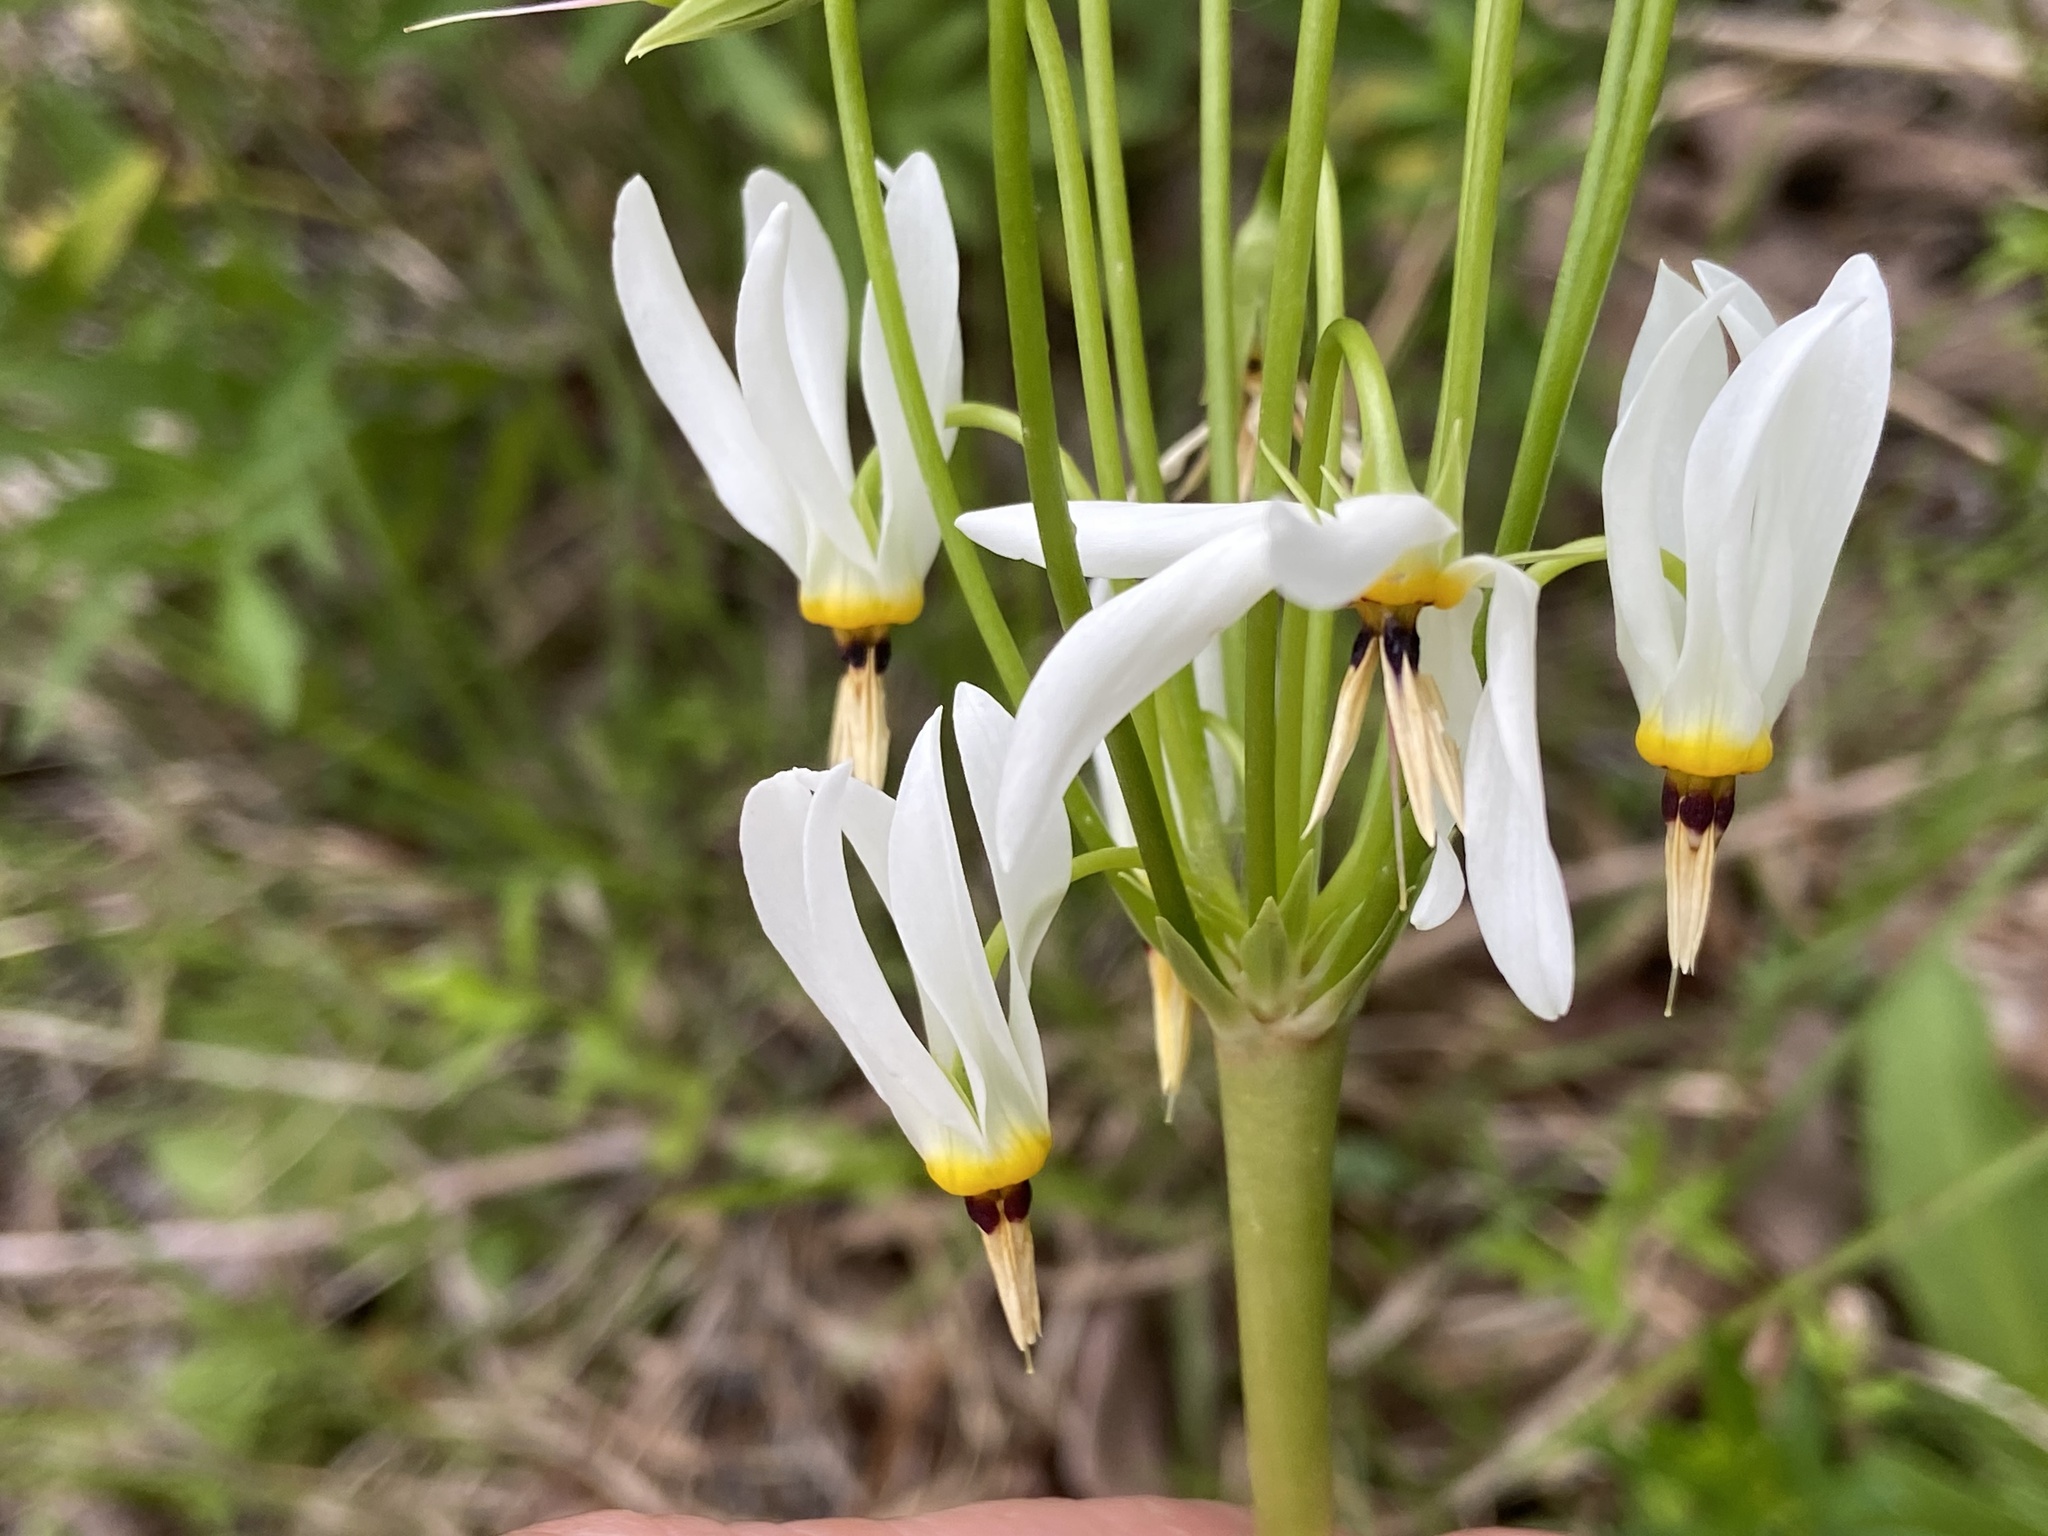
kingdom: Plantae
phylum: Tracheophyta
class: Magnoliopsida
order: Ericales
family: Primulaceae
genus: Dodecatheon
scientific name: Dodecatheon meadia
